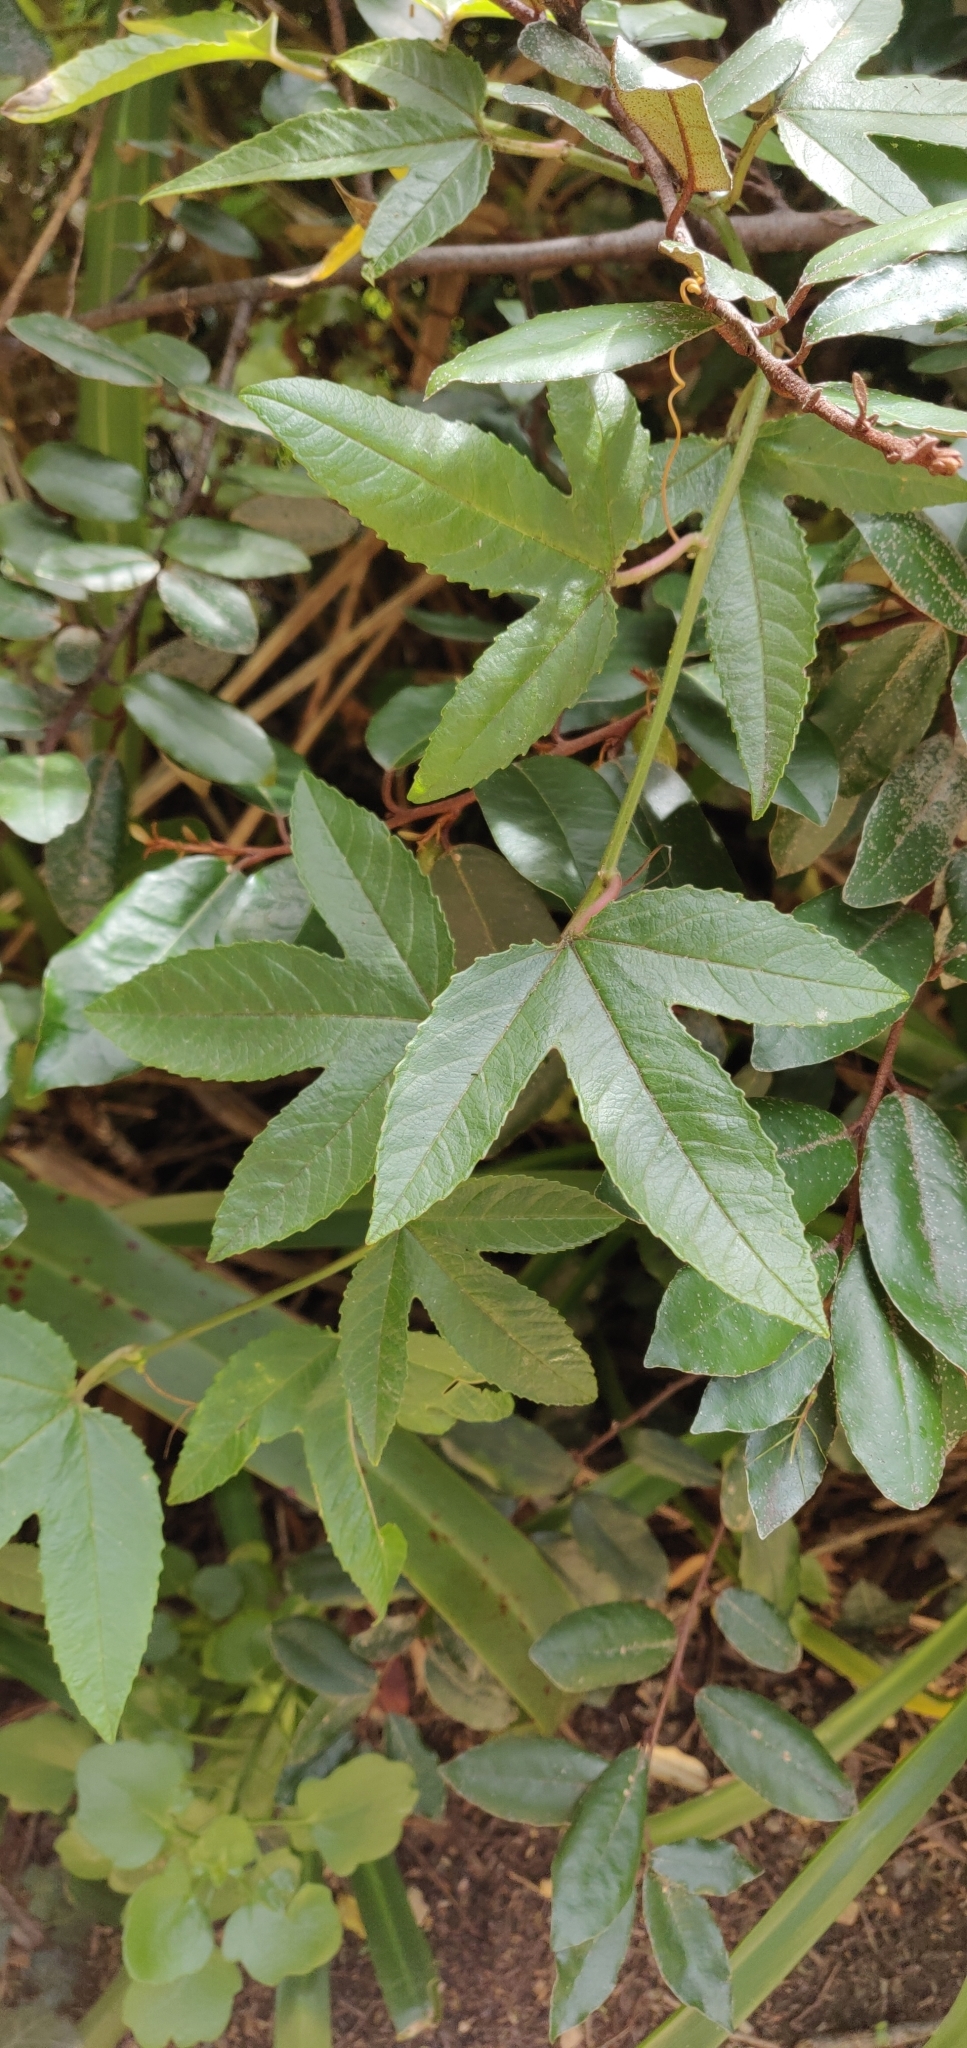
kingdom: Plantae
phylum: Tracheophyta
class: Magnoliopsida
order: Malpighiales
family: Passifloraceae
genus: Passiflora
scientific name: Passiflora tripartita
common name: Banana poka
